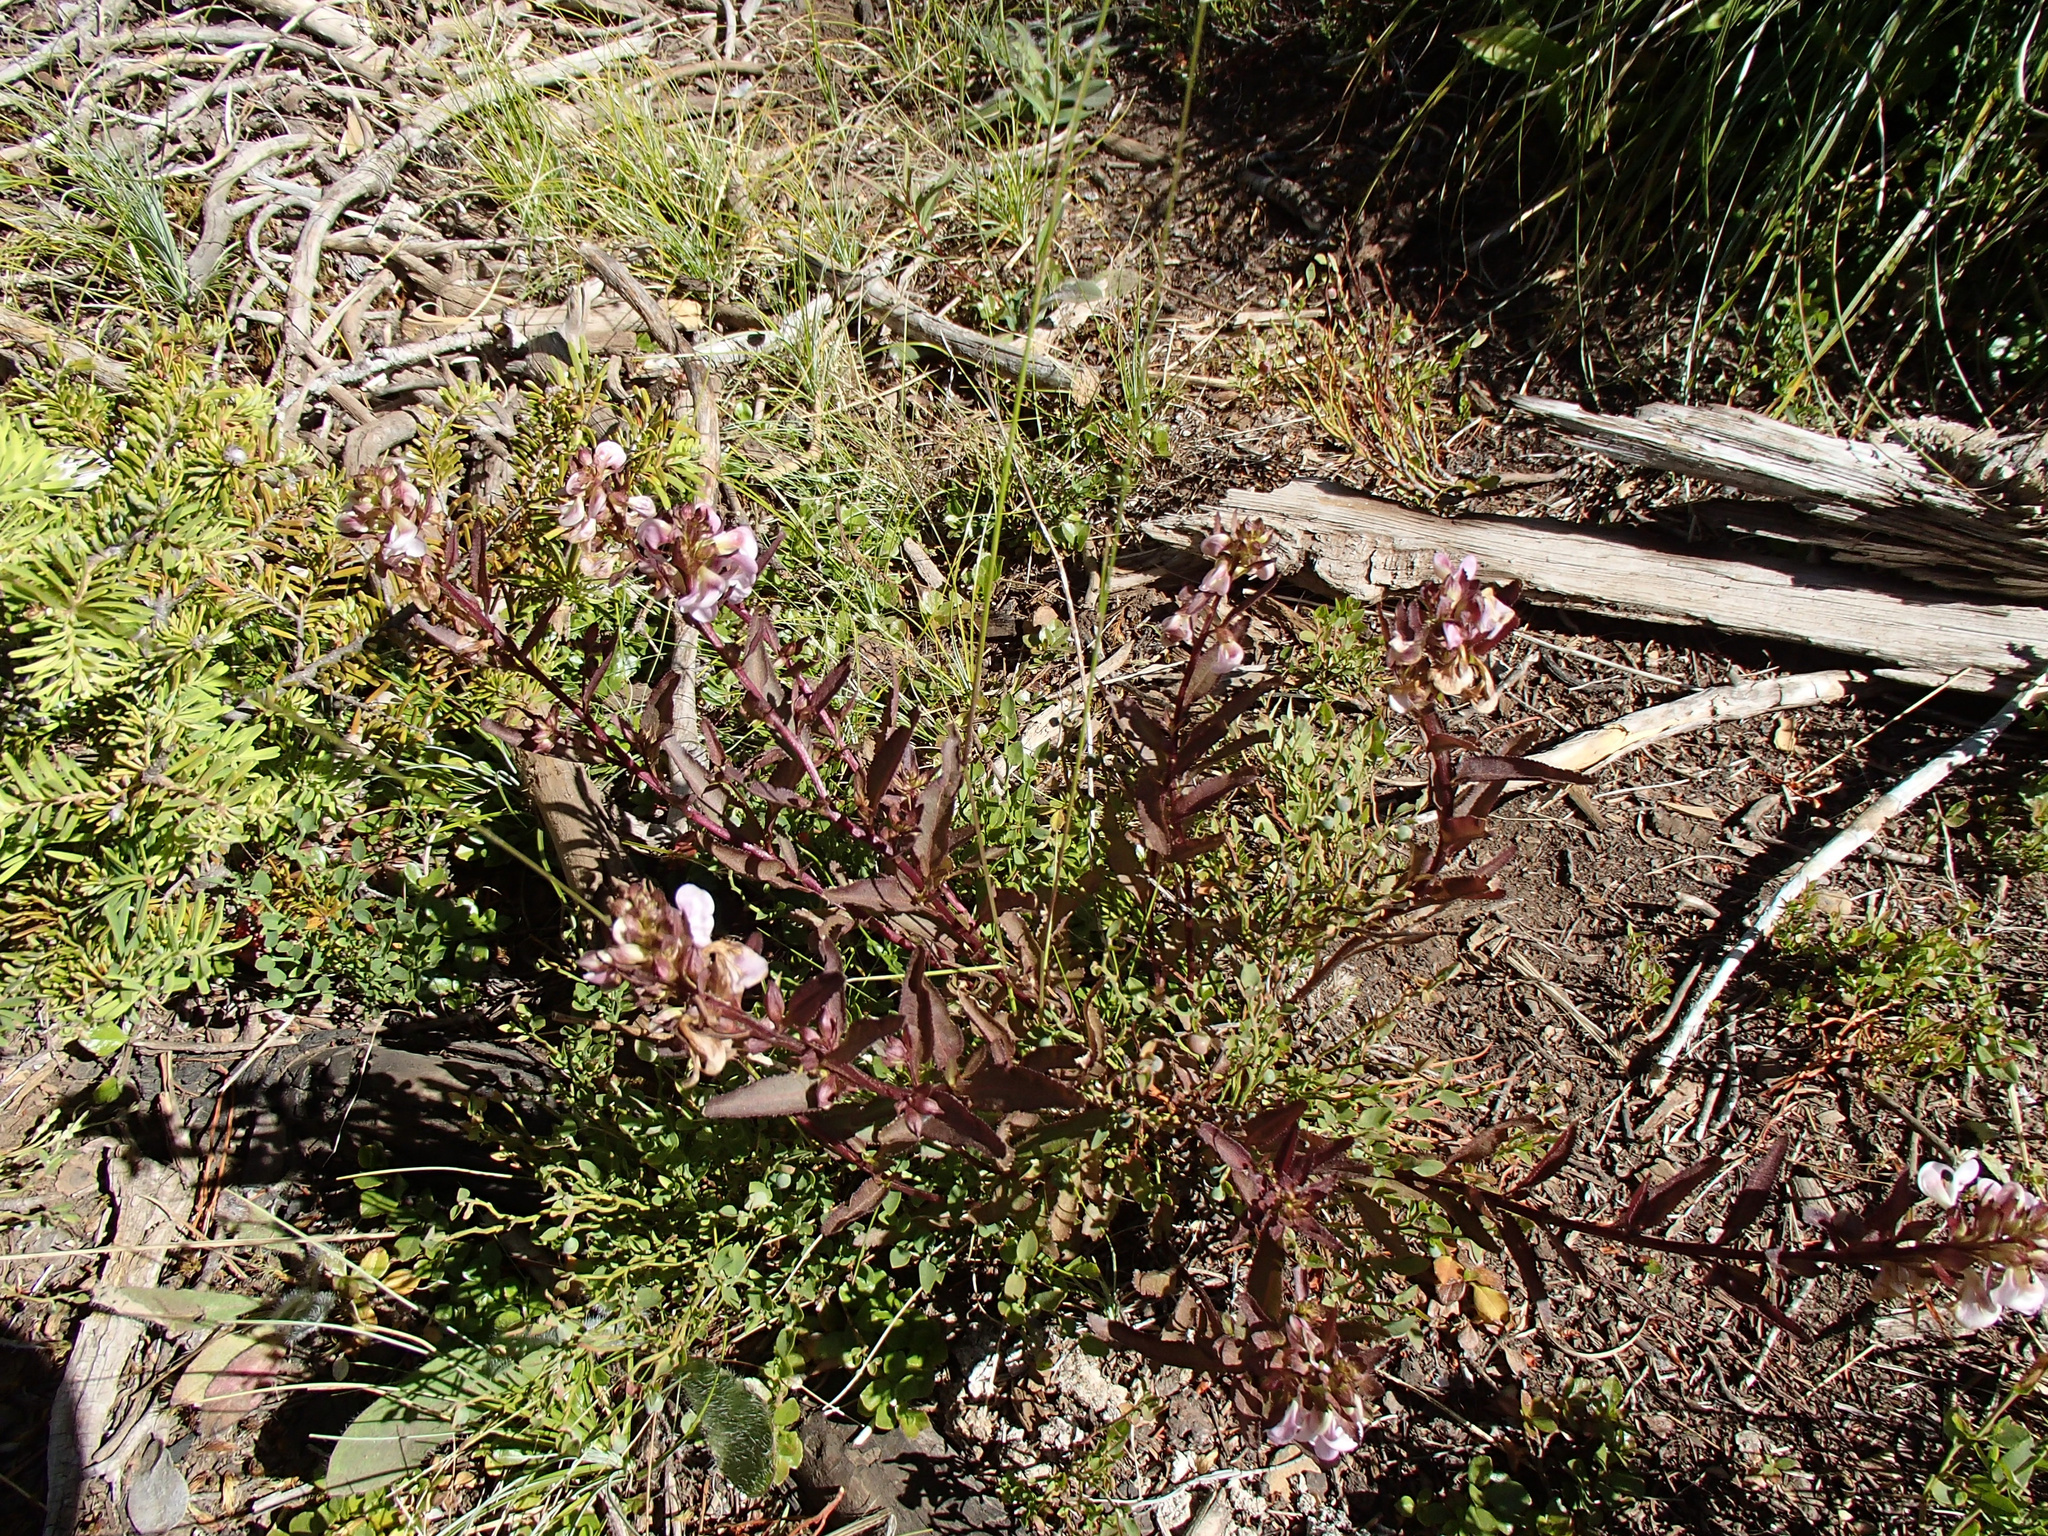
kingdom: Plantae
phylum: Tracheophyta
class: Magnoliopsida
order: Lamiales
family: Orobanchaceae
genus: Pedicularis
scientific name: Pedicularis racemosa
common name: Leafy lousewort
